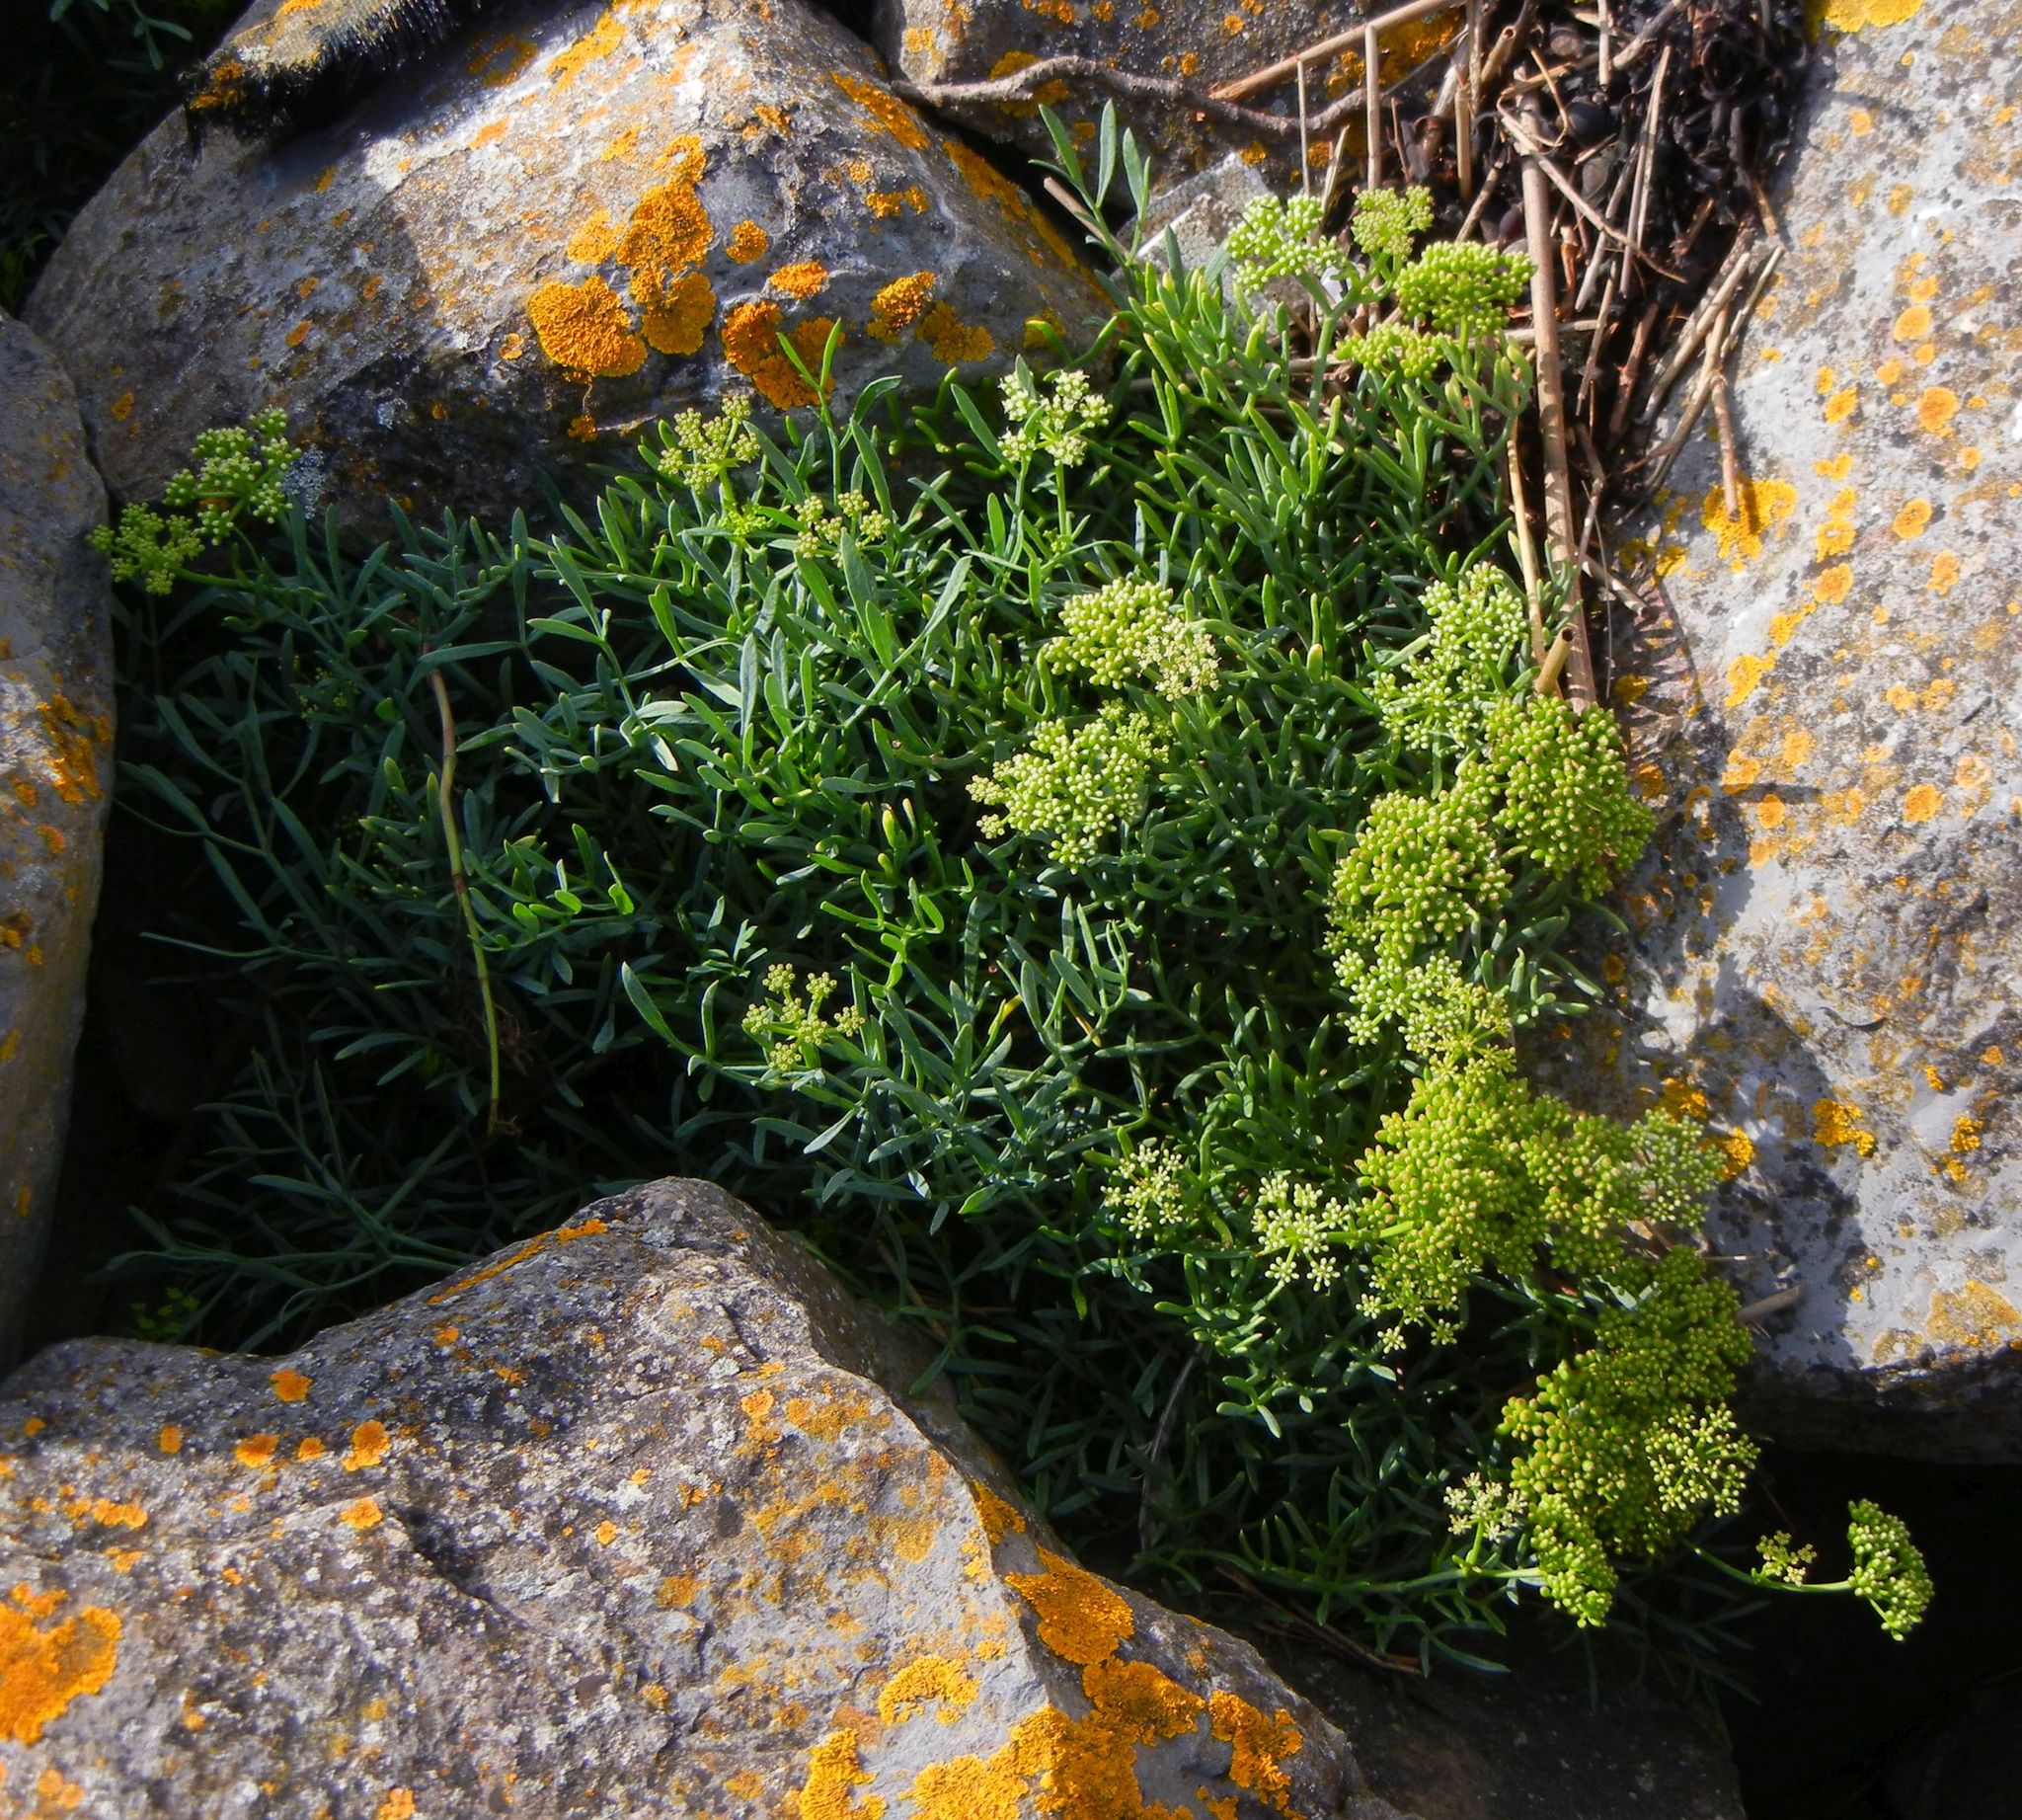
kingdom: Plantae
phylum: Tracheophyta
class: Magnoliopsida
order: Apiales
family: Apiaceae
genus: Crithmum
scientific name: Crithmum maritimum
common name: Rock samphire
